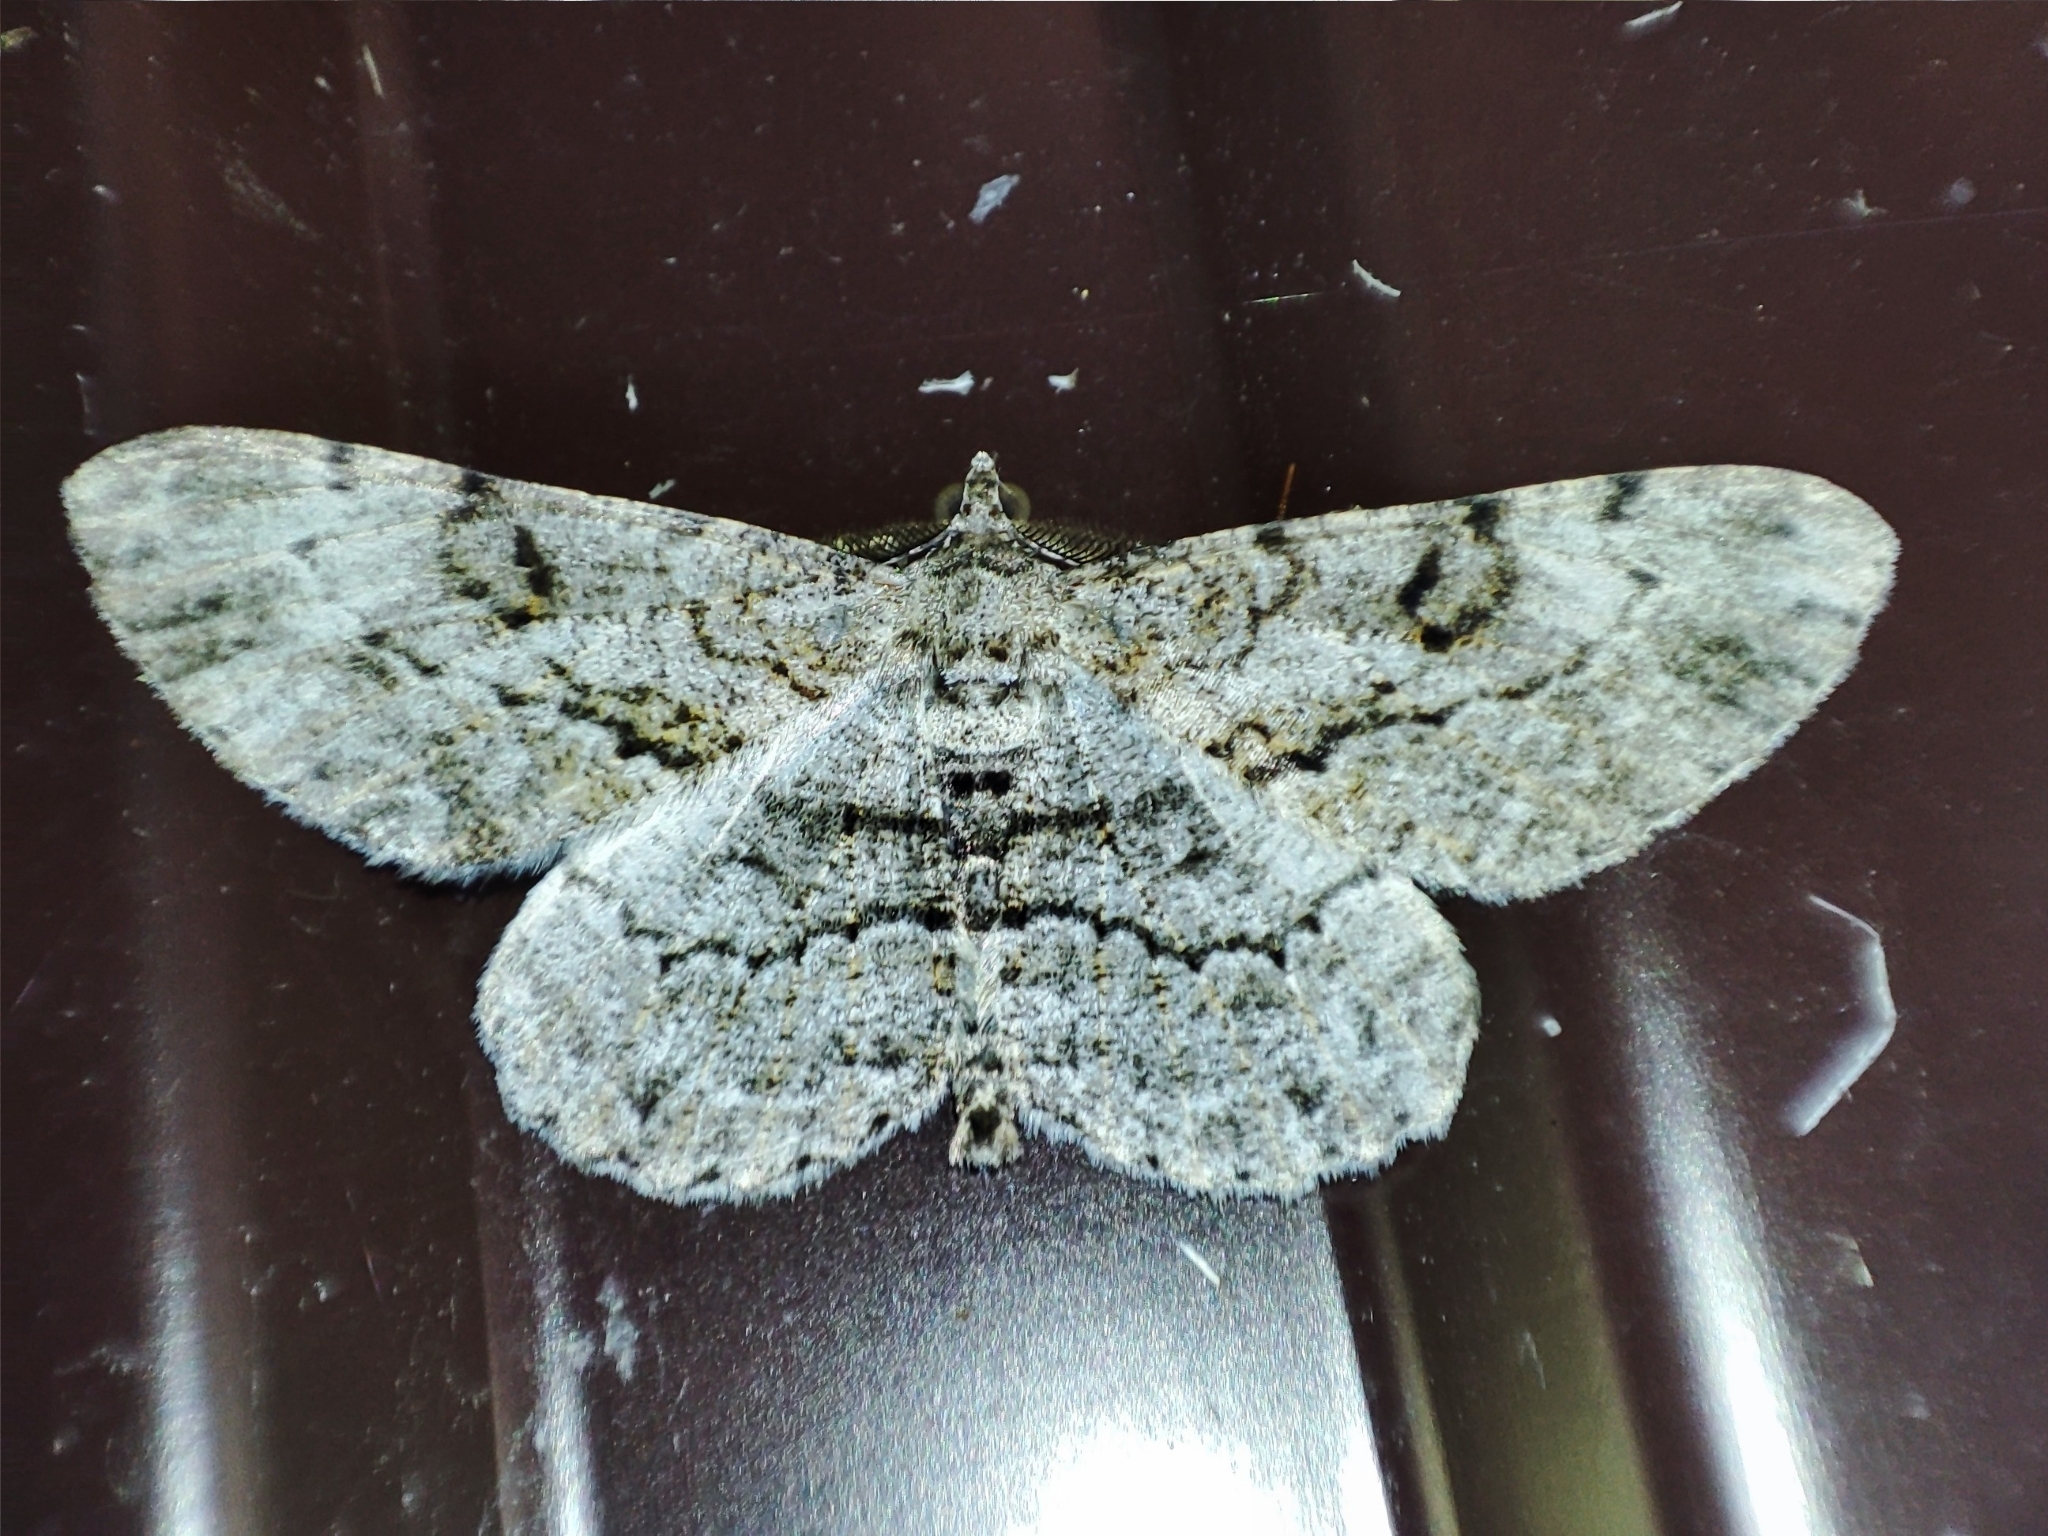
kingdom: Animalia
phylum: Arthropoda
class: Insecta
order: Lepidoptera
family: Geometridae
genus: Peribatodes
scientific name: Peribatodes rhomboidaria
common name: Willow beauty
